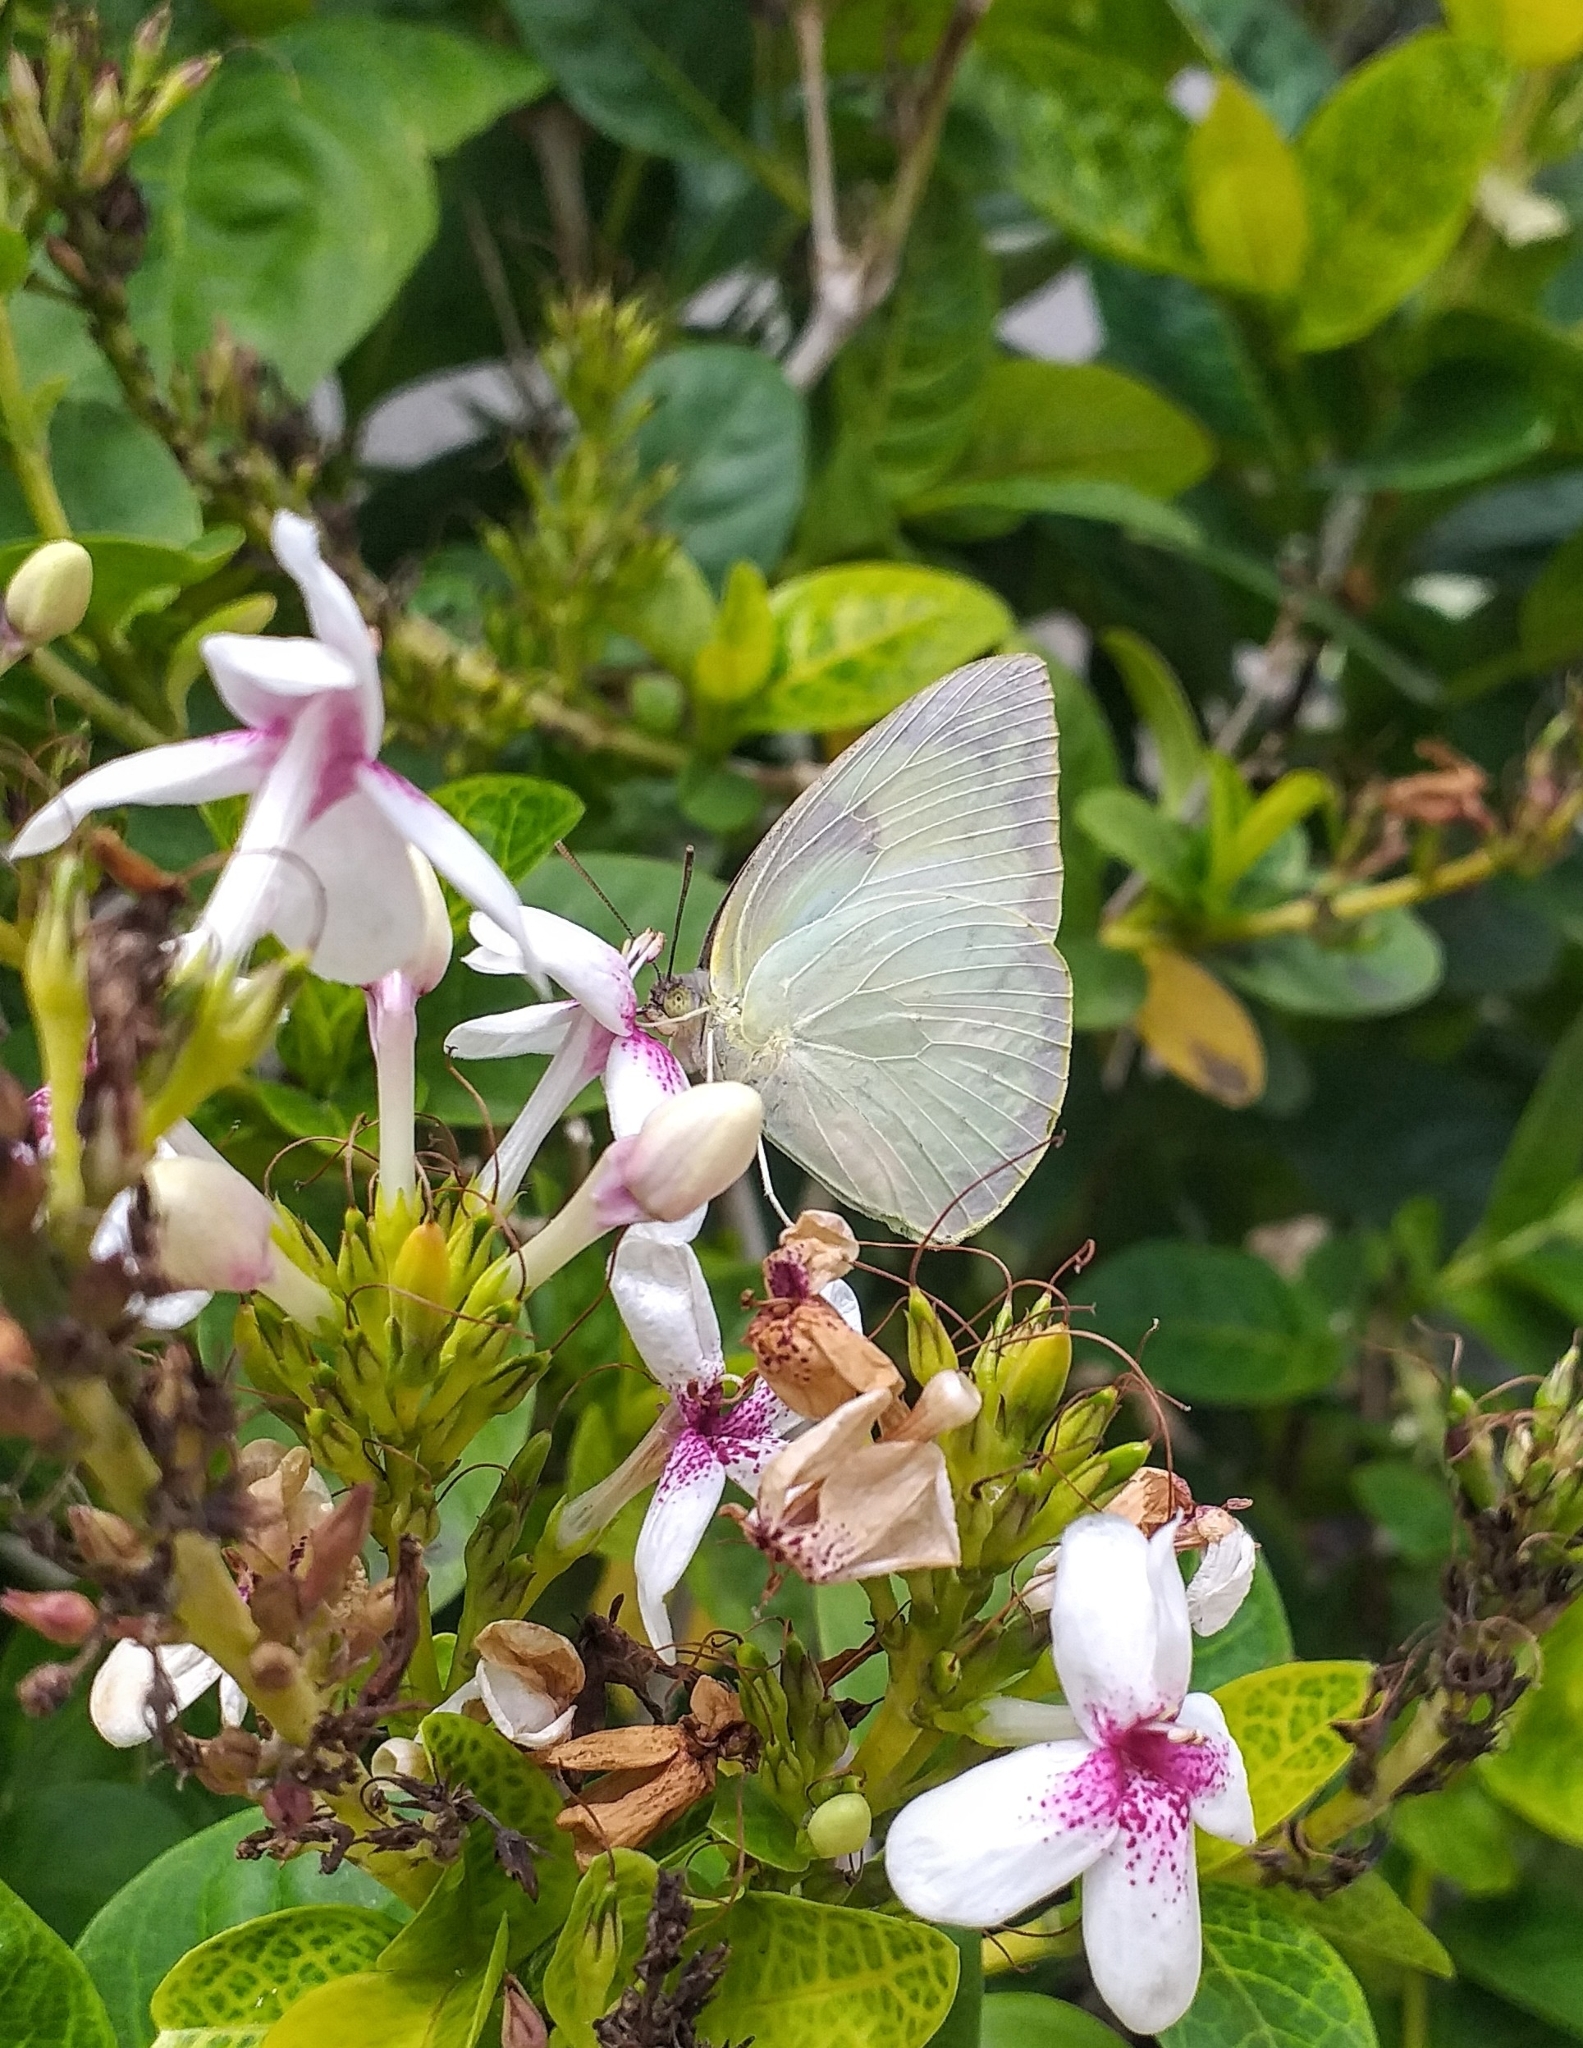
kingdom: Animalia
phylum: Arthropoda
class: Insecta
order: Lepidoptera
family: Pieridae
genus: Catopsilia
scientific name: Catopsilia pomona
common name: Common emigrant
